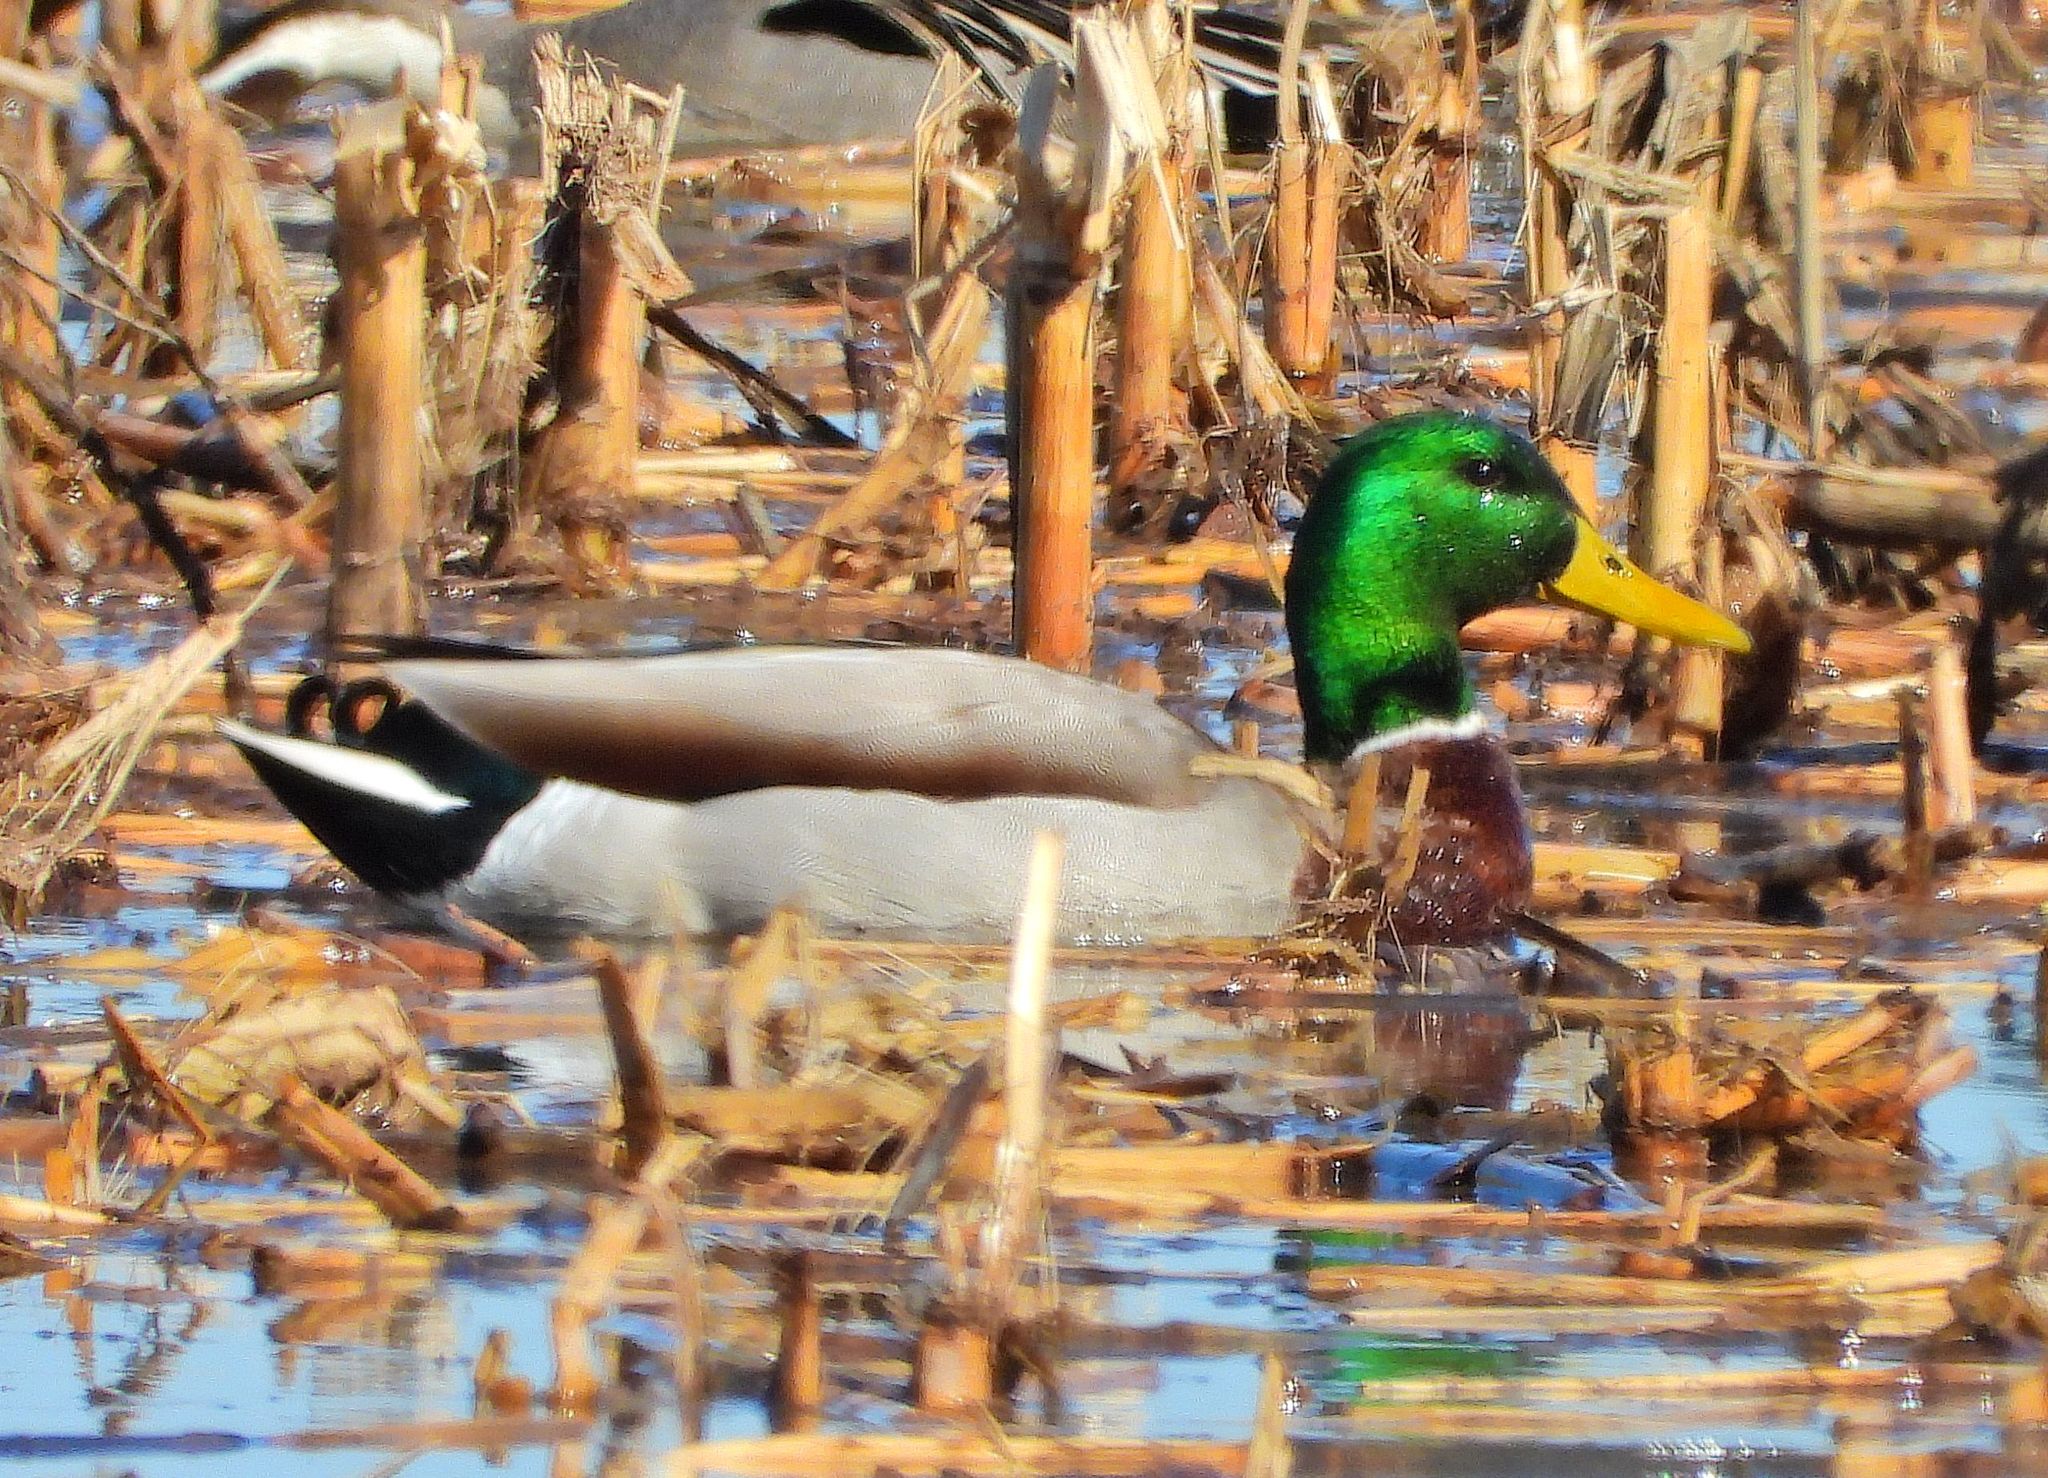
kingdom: Animalia
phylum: Chordata
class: Aves
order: Anseriformes
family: Anatidae
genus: Anas
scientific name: Anas platyrhynchos
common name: Mallard
